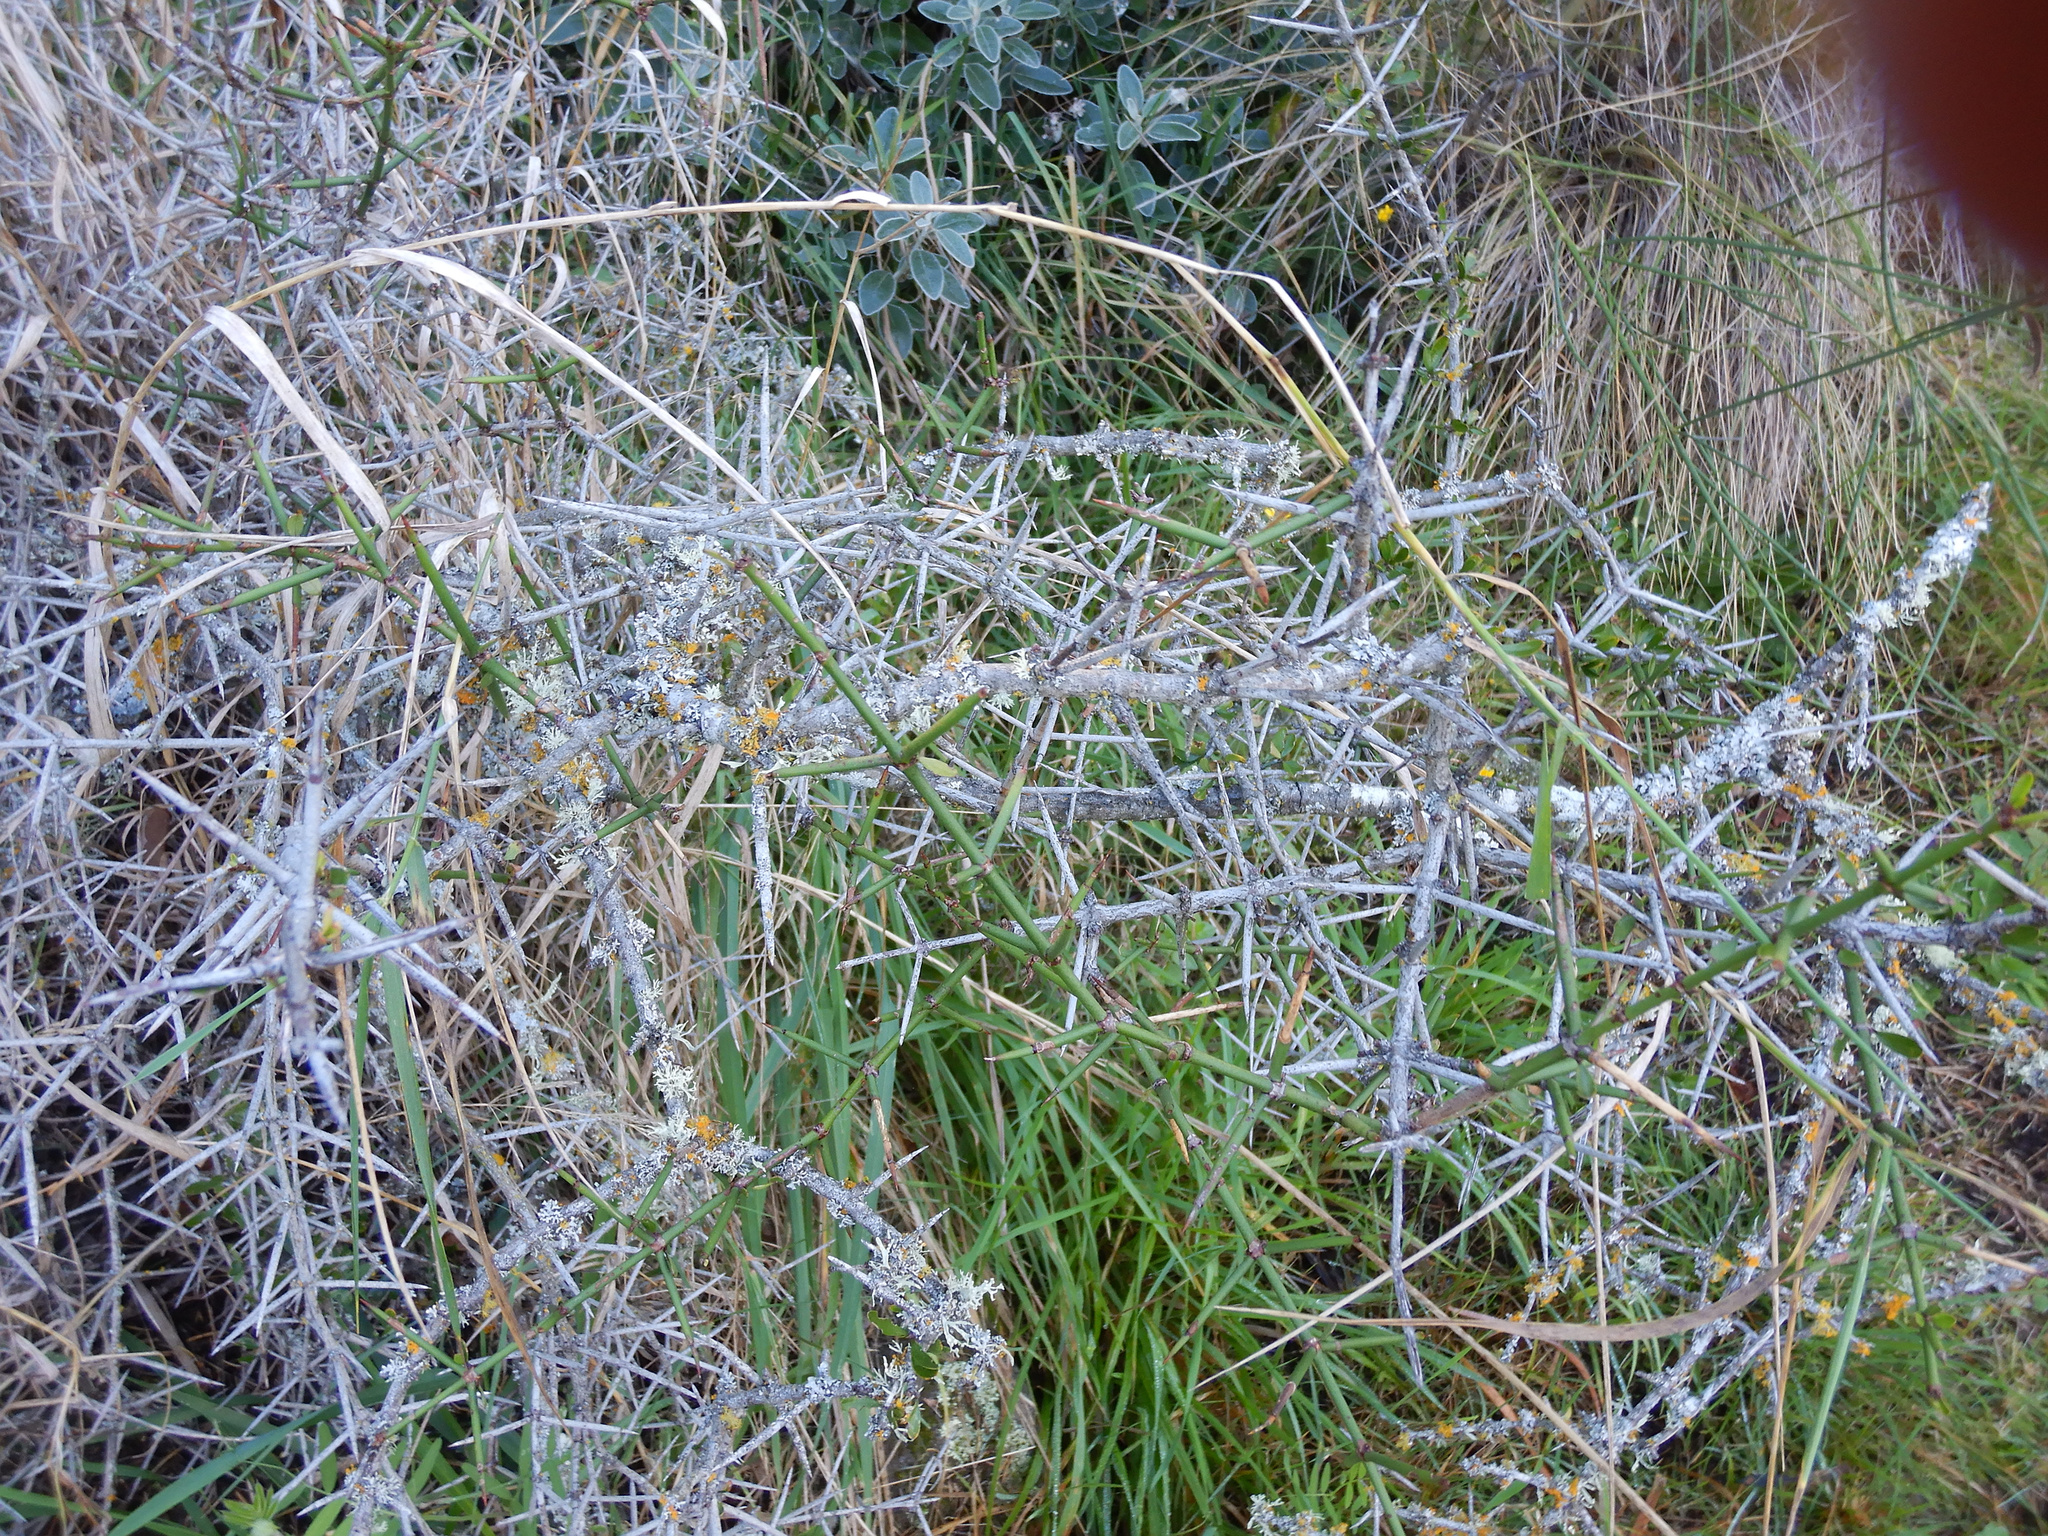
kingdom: Plantae
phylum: Tracheophyta
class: Magnoliopsida
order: Rosales
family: Rhamnaceae
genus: Discaria
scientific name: Discaria toumatou
